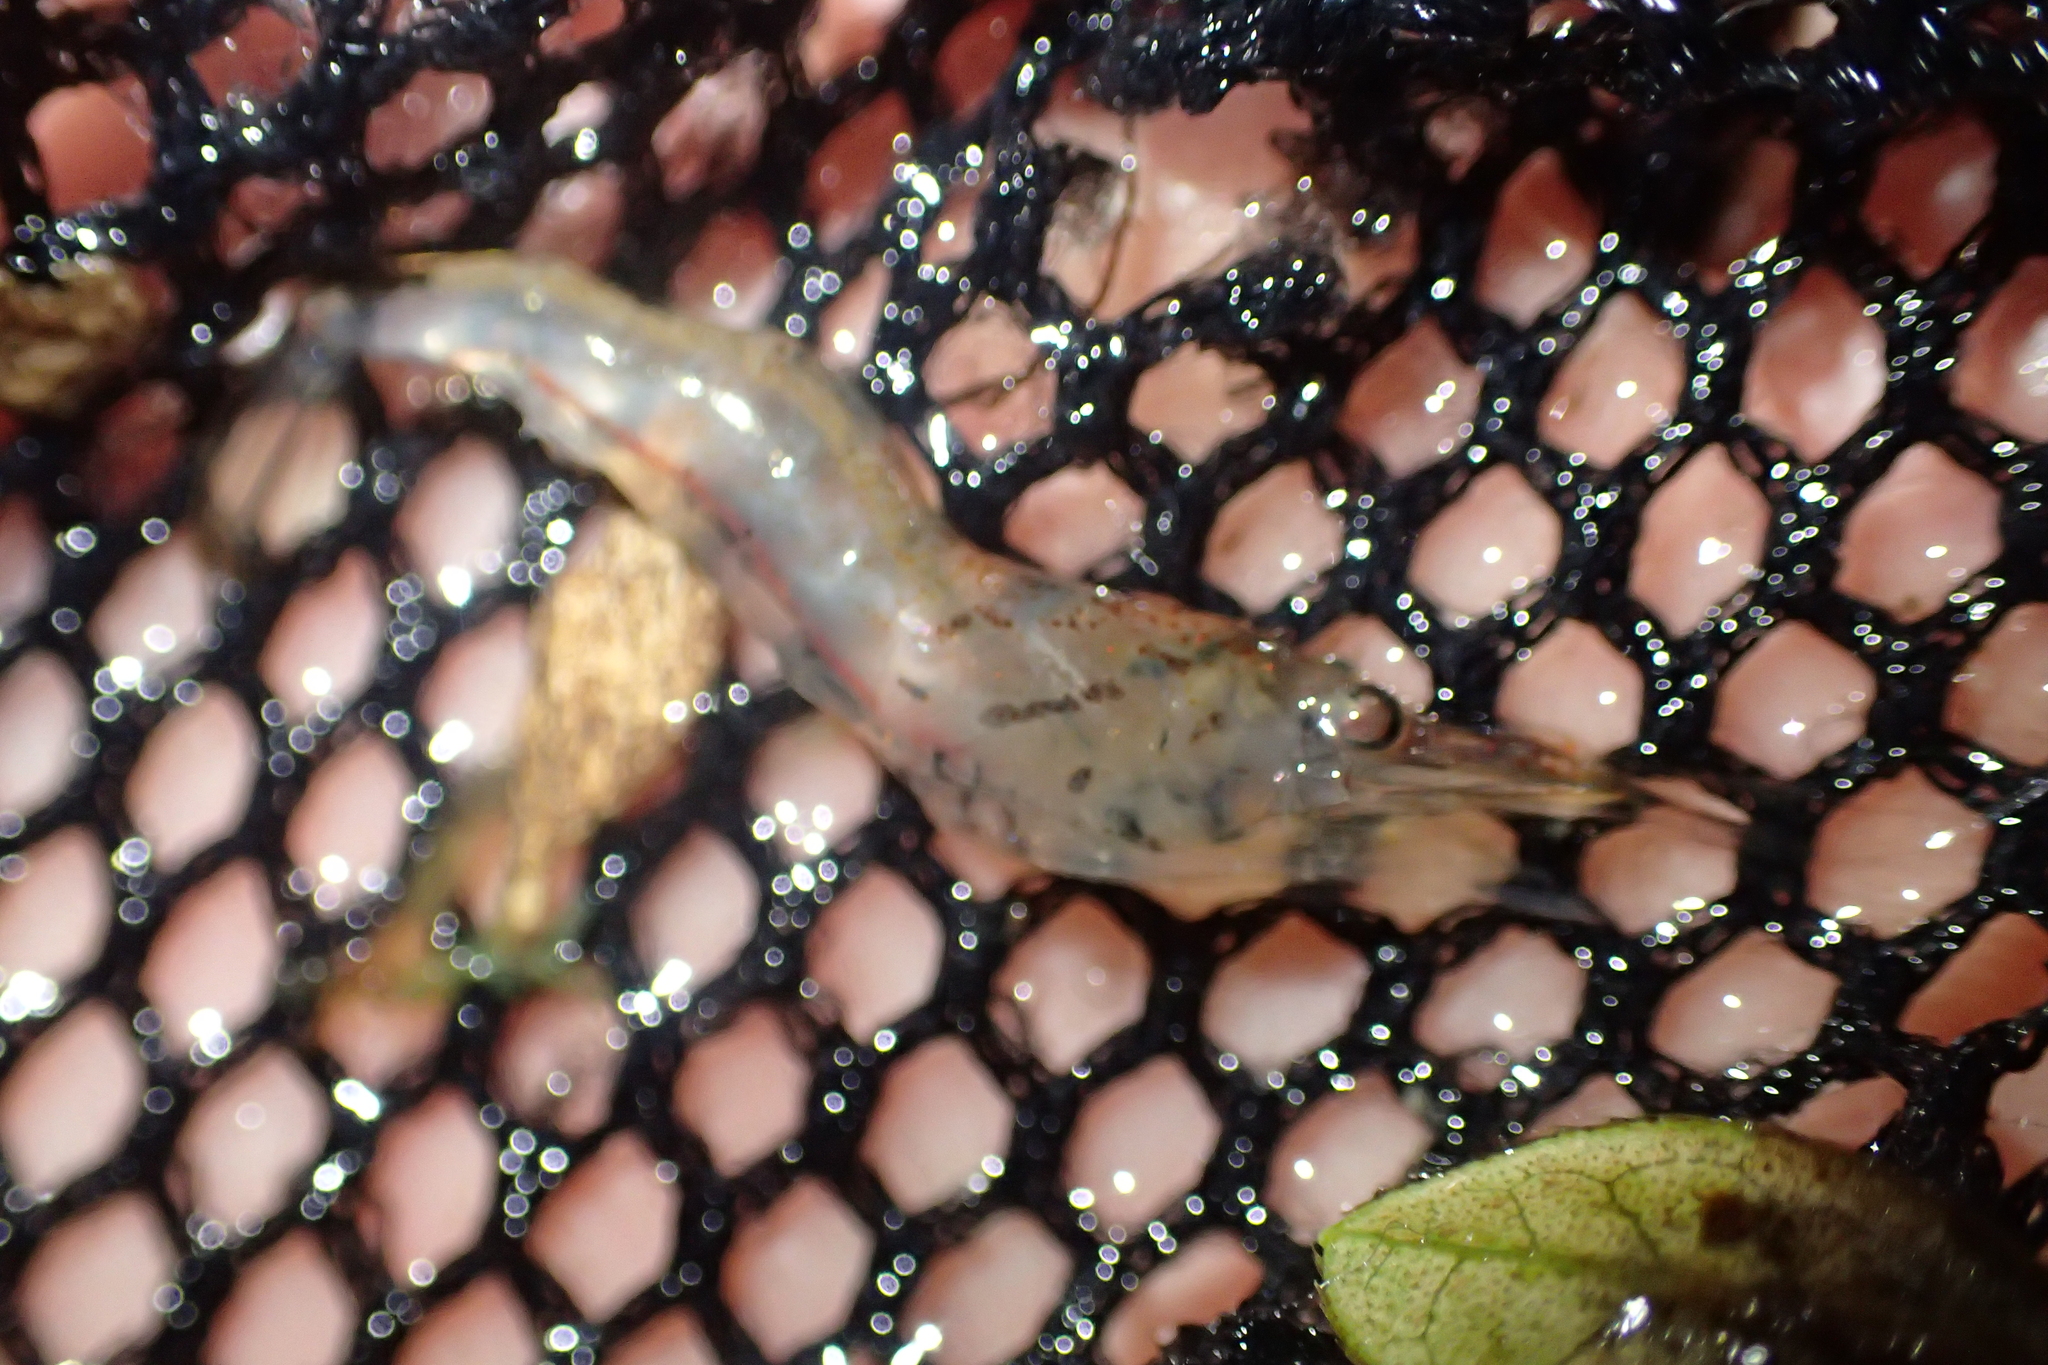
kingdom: Animalia
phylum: Arthropoda
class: Malacostraca
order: Decapoda
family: Atyidae
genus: Paratya
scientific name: Paratya curvirostris
